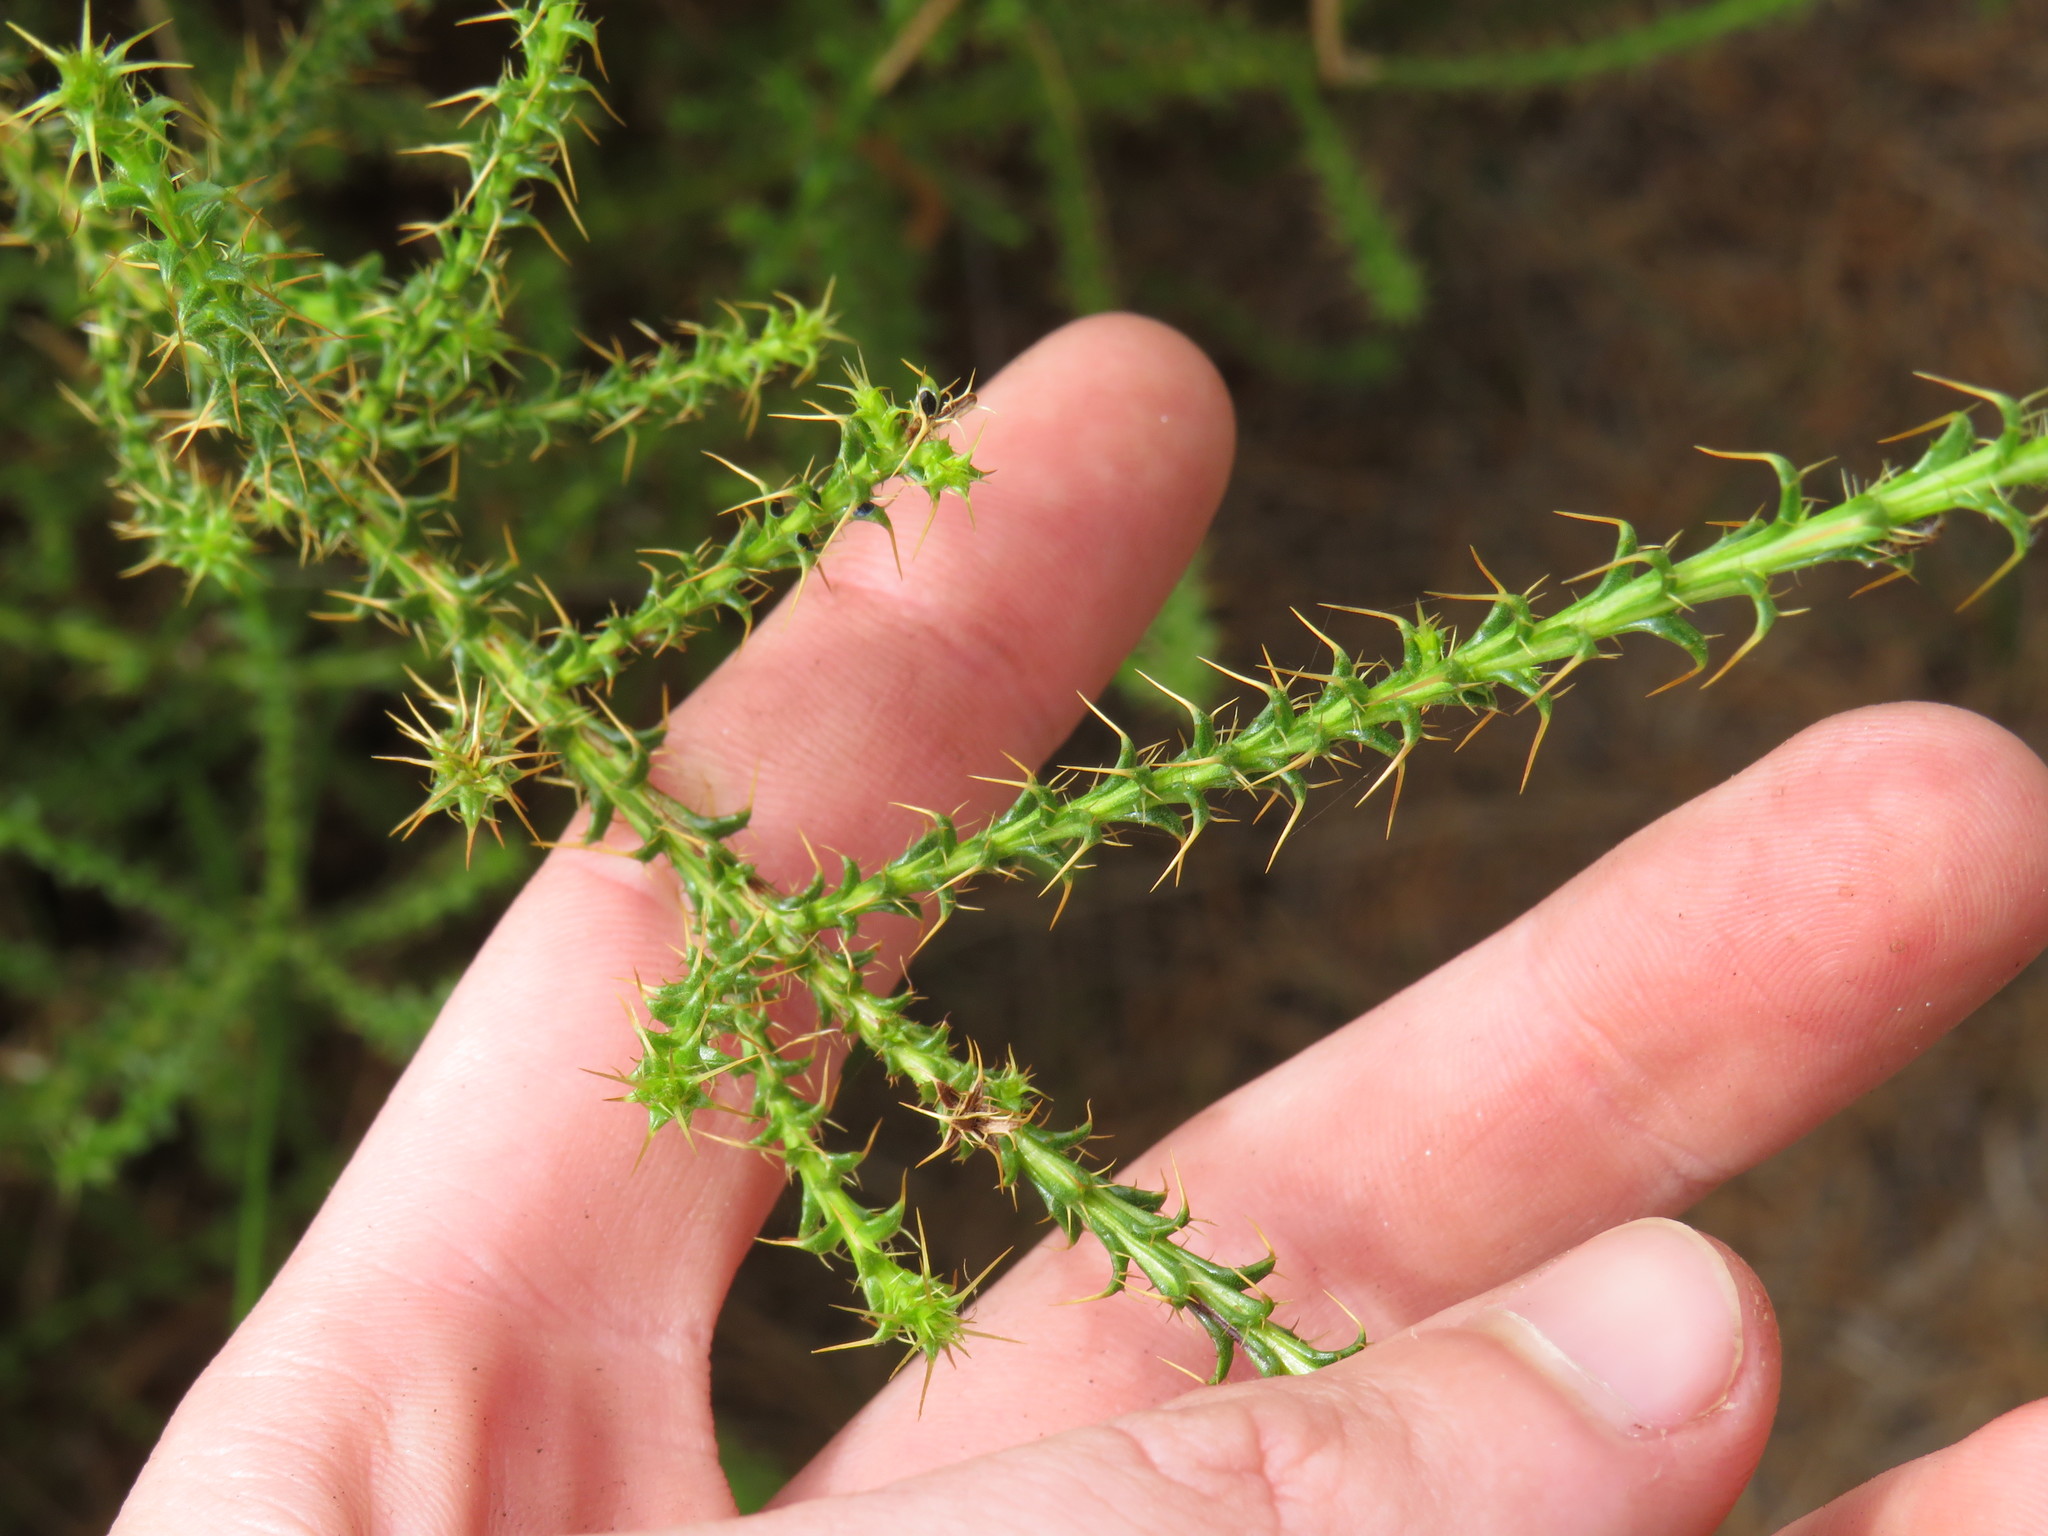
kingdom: Plantae
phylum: Tracheophyta
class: Magnoliopsida
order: Asterales
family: Asteraceae
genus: Cullumia
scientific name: Cullumia reticulata
